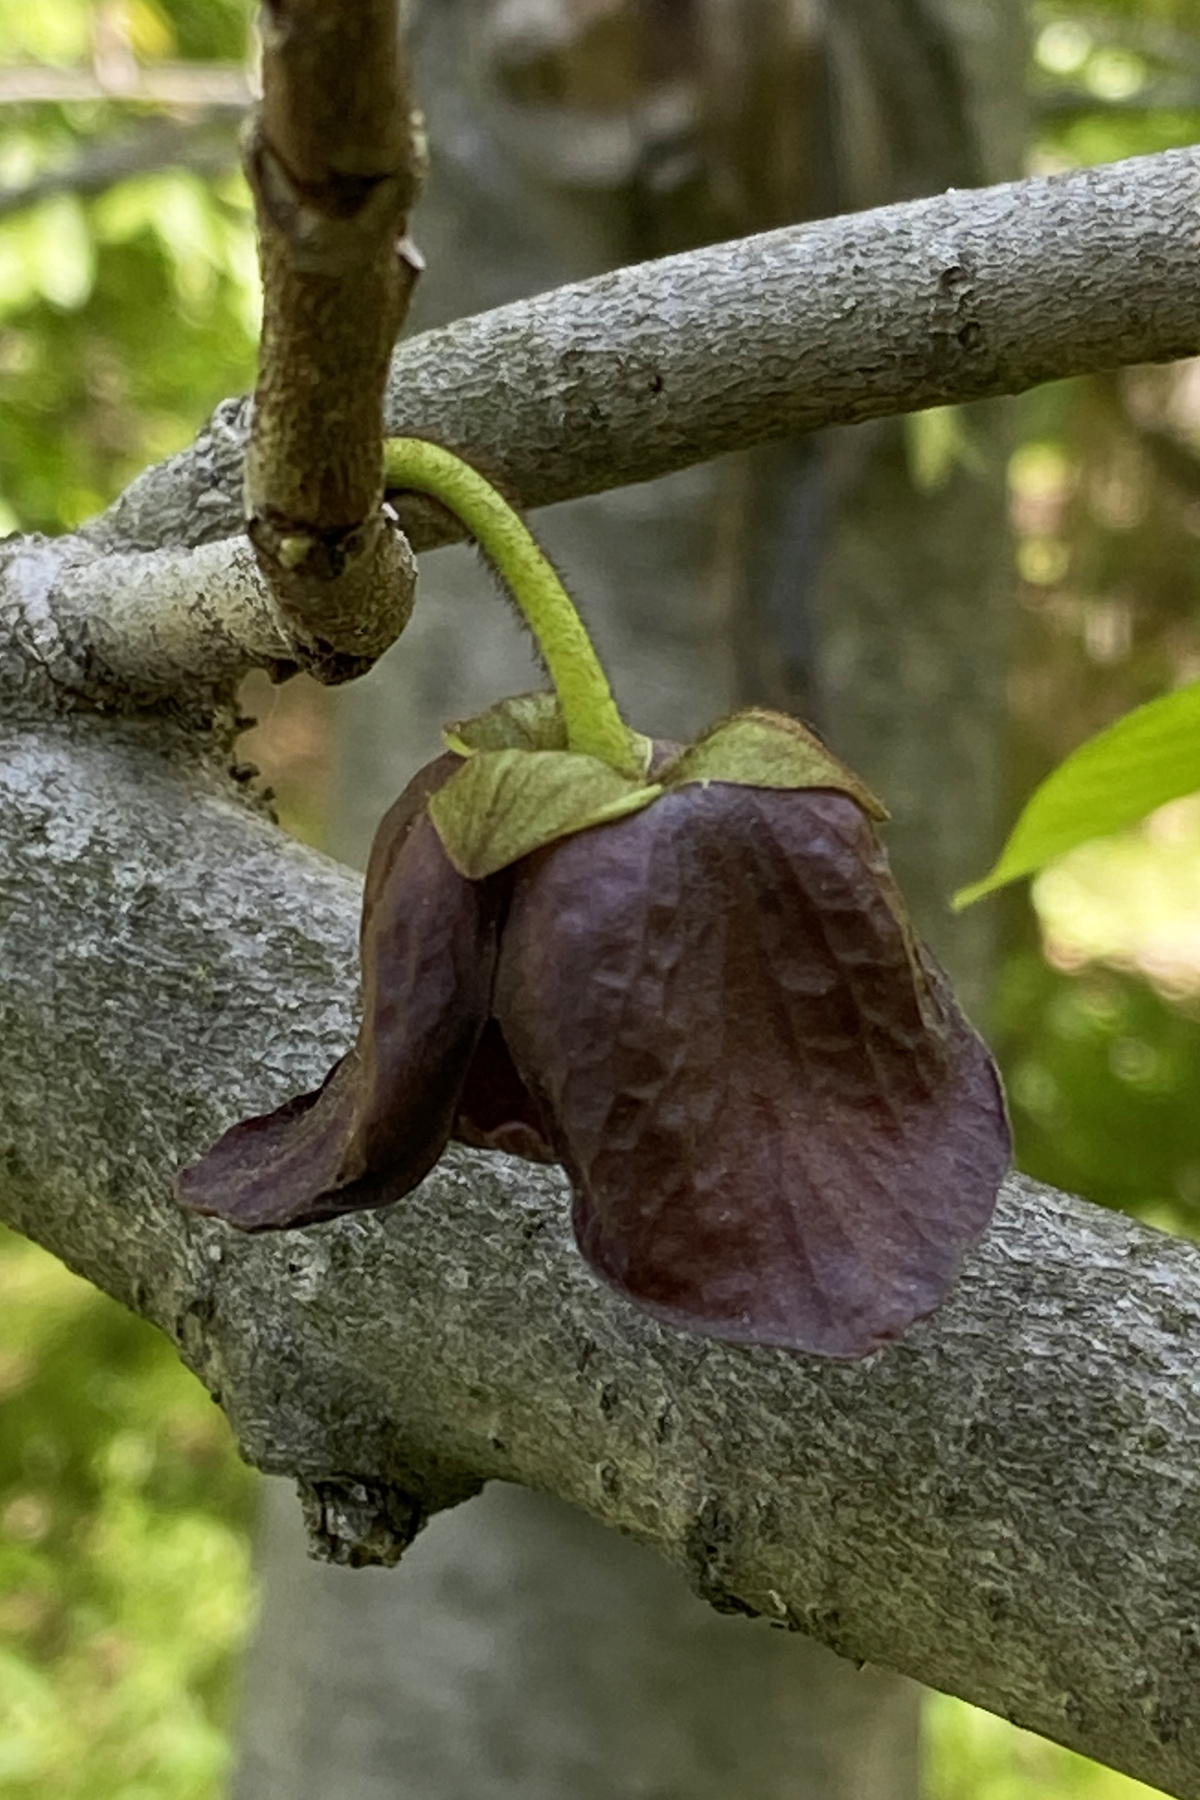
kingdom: Plantae
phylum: Tracheophyta
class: Magnoliopsida
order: Magnoliales
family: Annonaceae
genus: Asimina
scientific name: Asimina triloba
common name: Dog-banana
